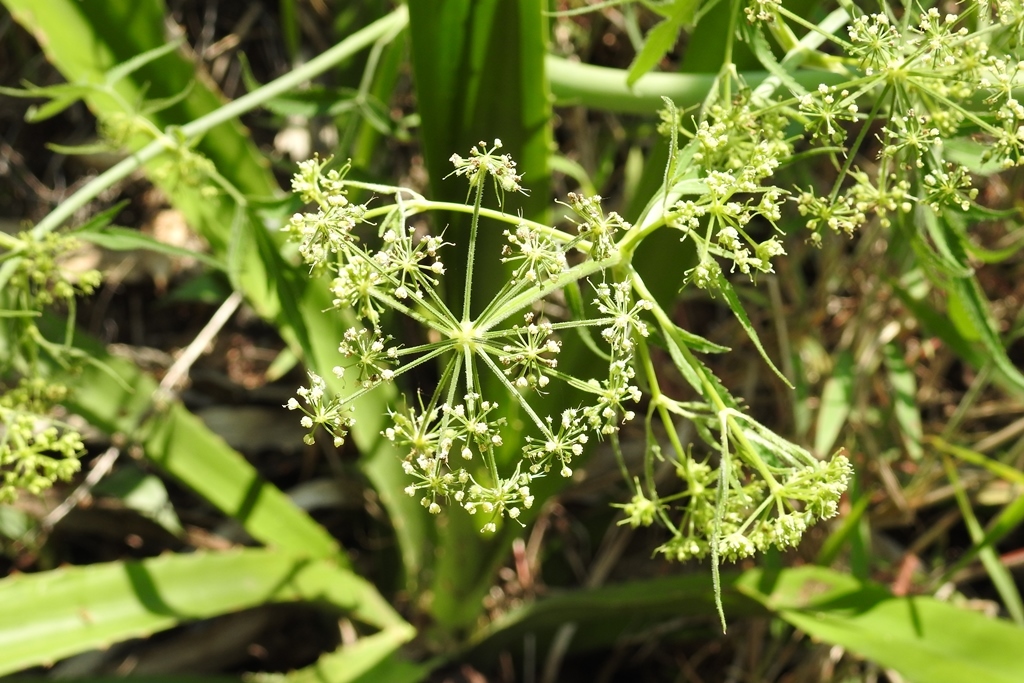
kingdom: Plantae
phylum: Tracheophyta
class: Magnoliopsida
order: Apiales
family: Apiaceae
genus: Prionosciadium
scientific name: Prionosciadium nelsonii
